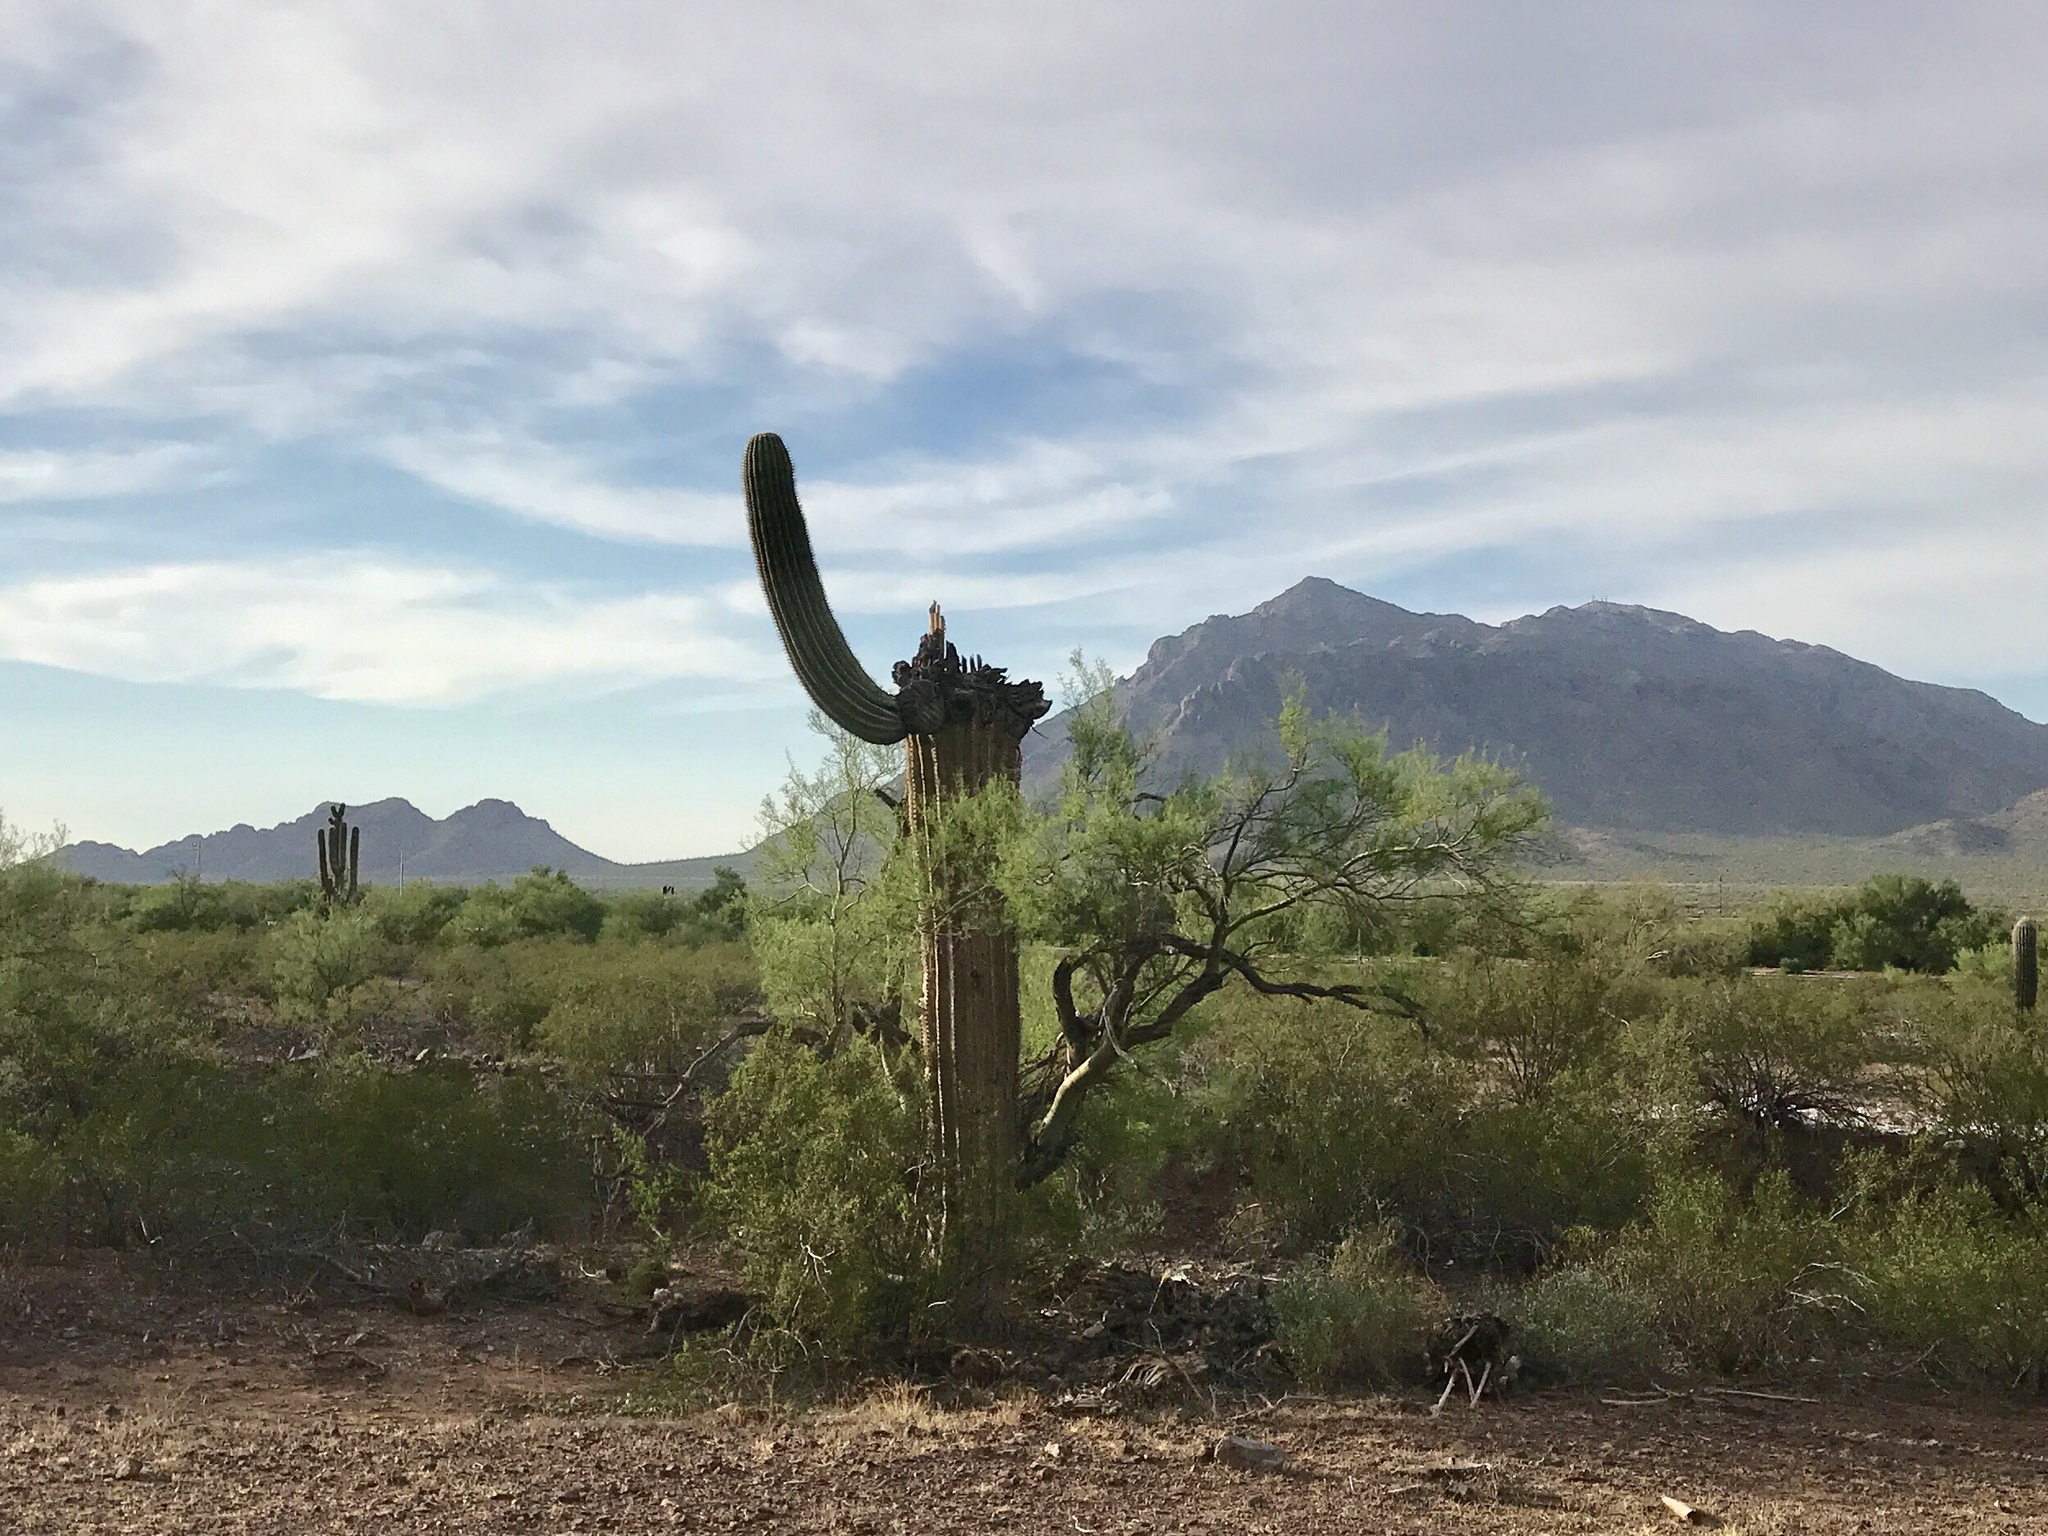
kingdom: Plantae
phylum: Tracheophyta
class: Magnoliopsida
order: Caryophyllales
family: Cactaceae
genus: Carnegiea
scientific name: Carnegiea gigantea
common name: Saguaro
